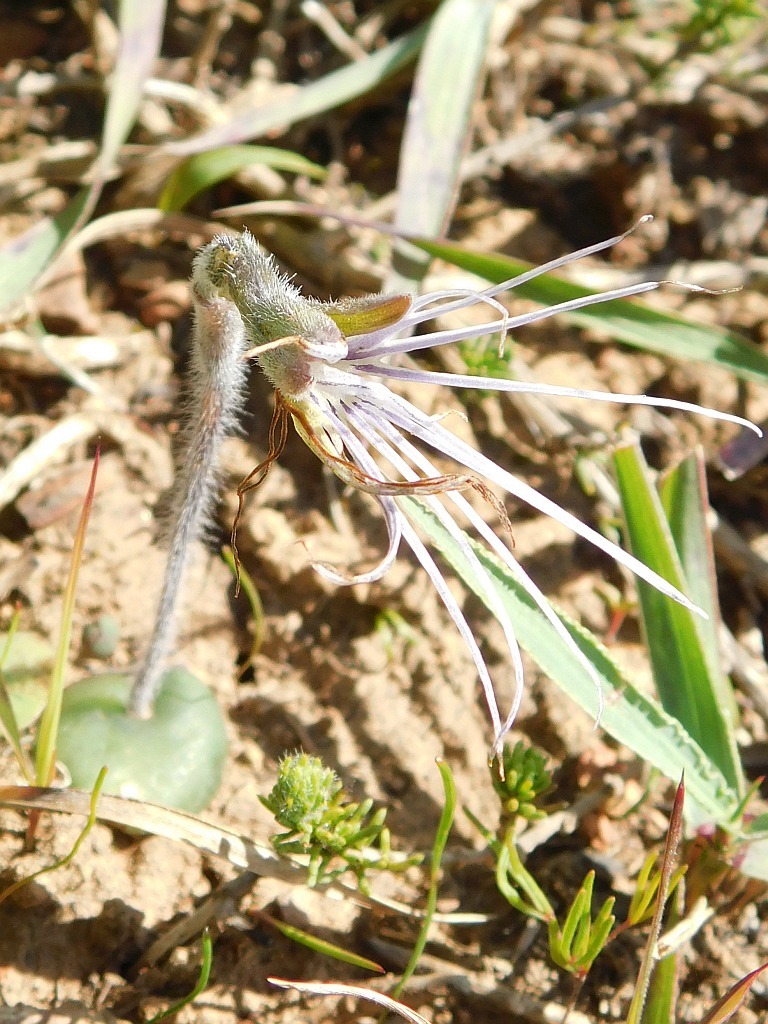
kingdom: Plantae
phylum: Tracheophyta
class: Liliopsida
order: Asparagales
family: Orchidaceae
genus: Holothrix
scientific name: Holothrix burmanniana
